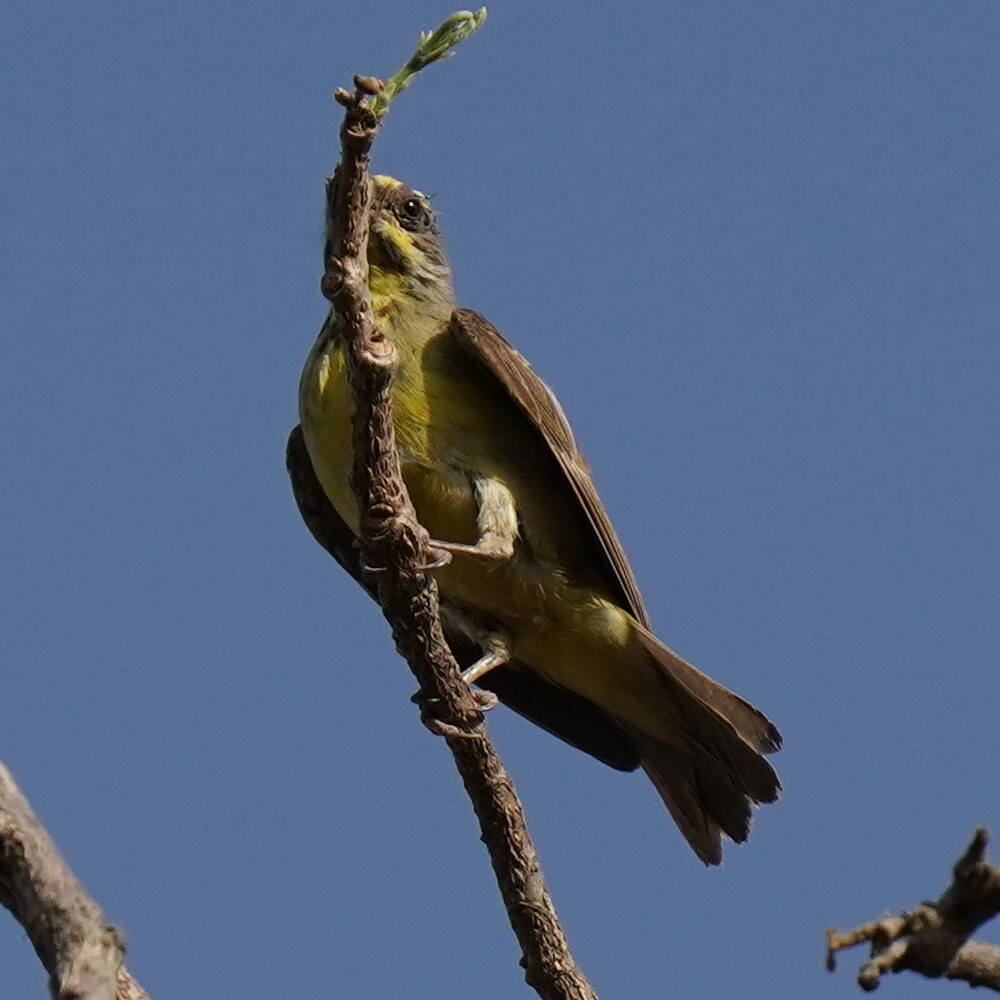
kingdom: Animalia
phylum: Chordata
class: Aves
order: Passeriformes
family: Fringillidae
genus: Crithagra
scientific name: Crithagra mozambica
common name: Yellow-fronted canary
